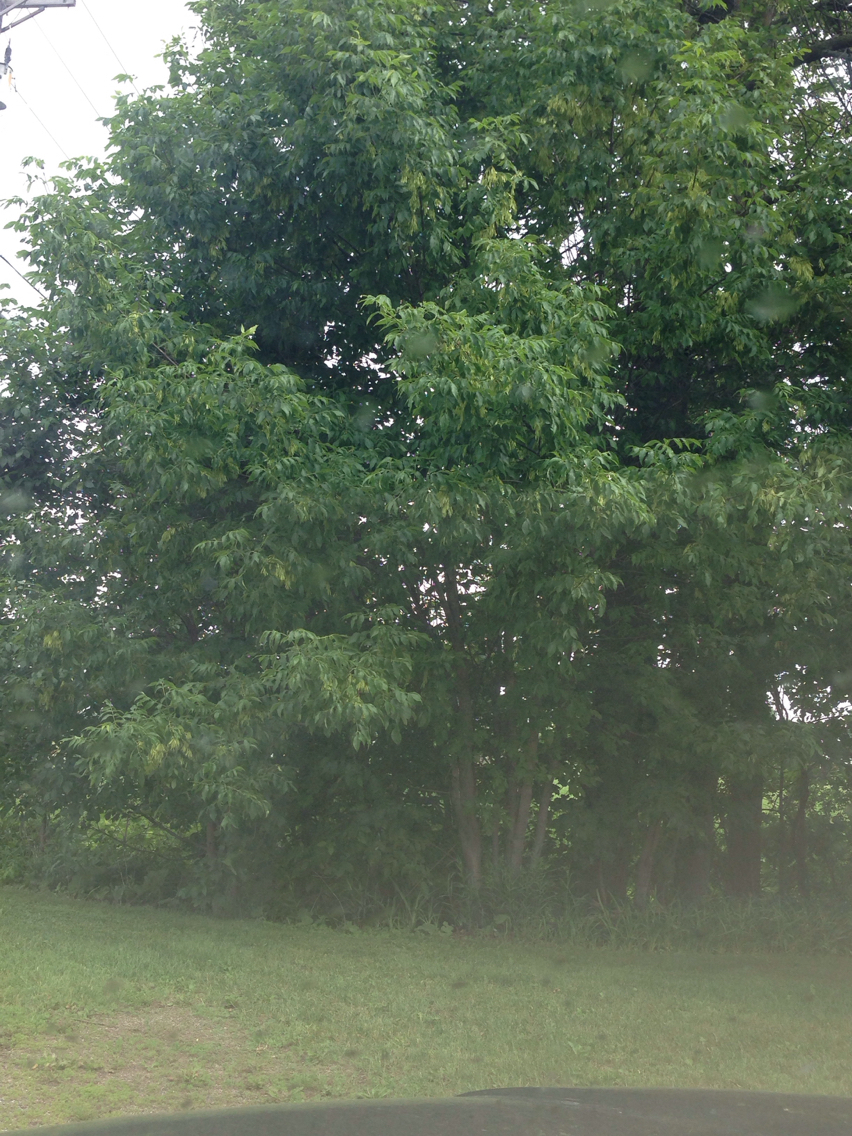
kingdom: Plantae
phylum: Tracheophyta
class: Magnoliopsida
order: Lamiales
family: Oleaceae
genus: Fraxinus
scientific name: Fraxinus americana
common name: White ash
